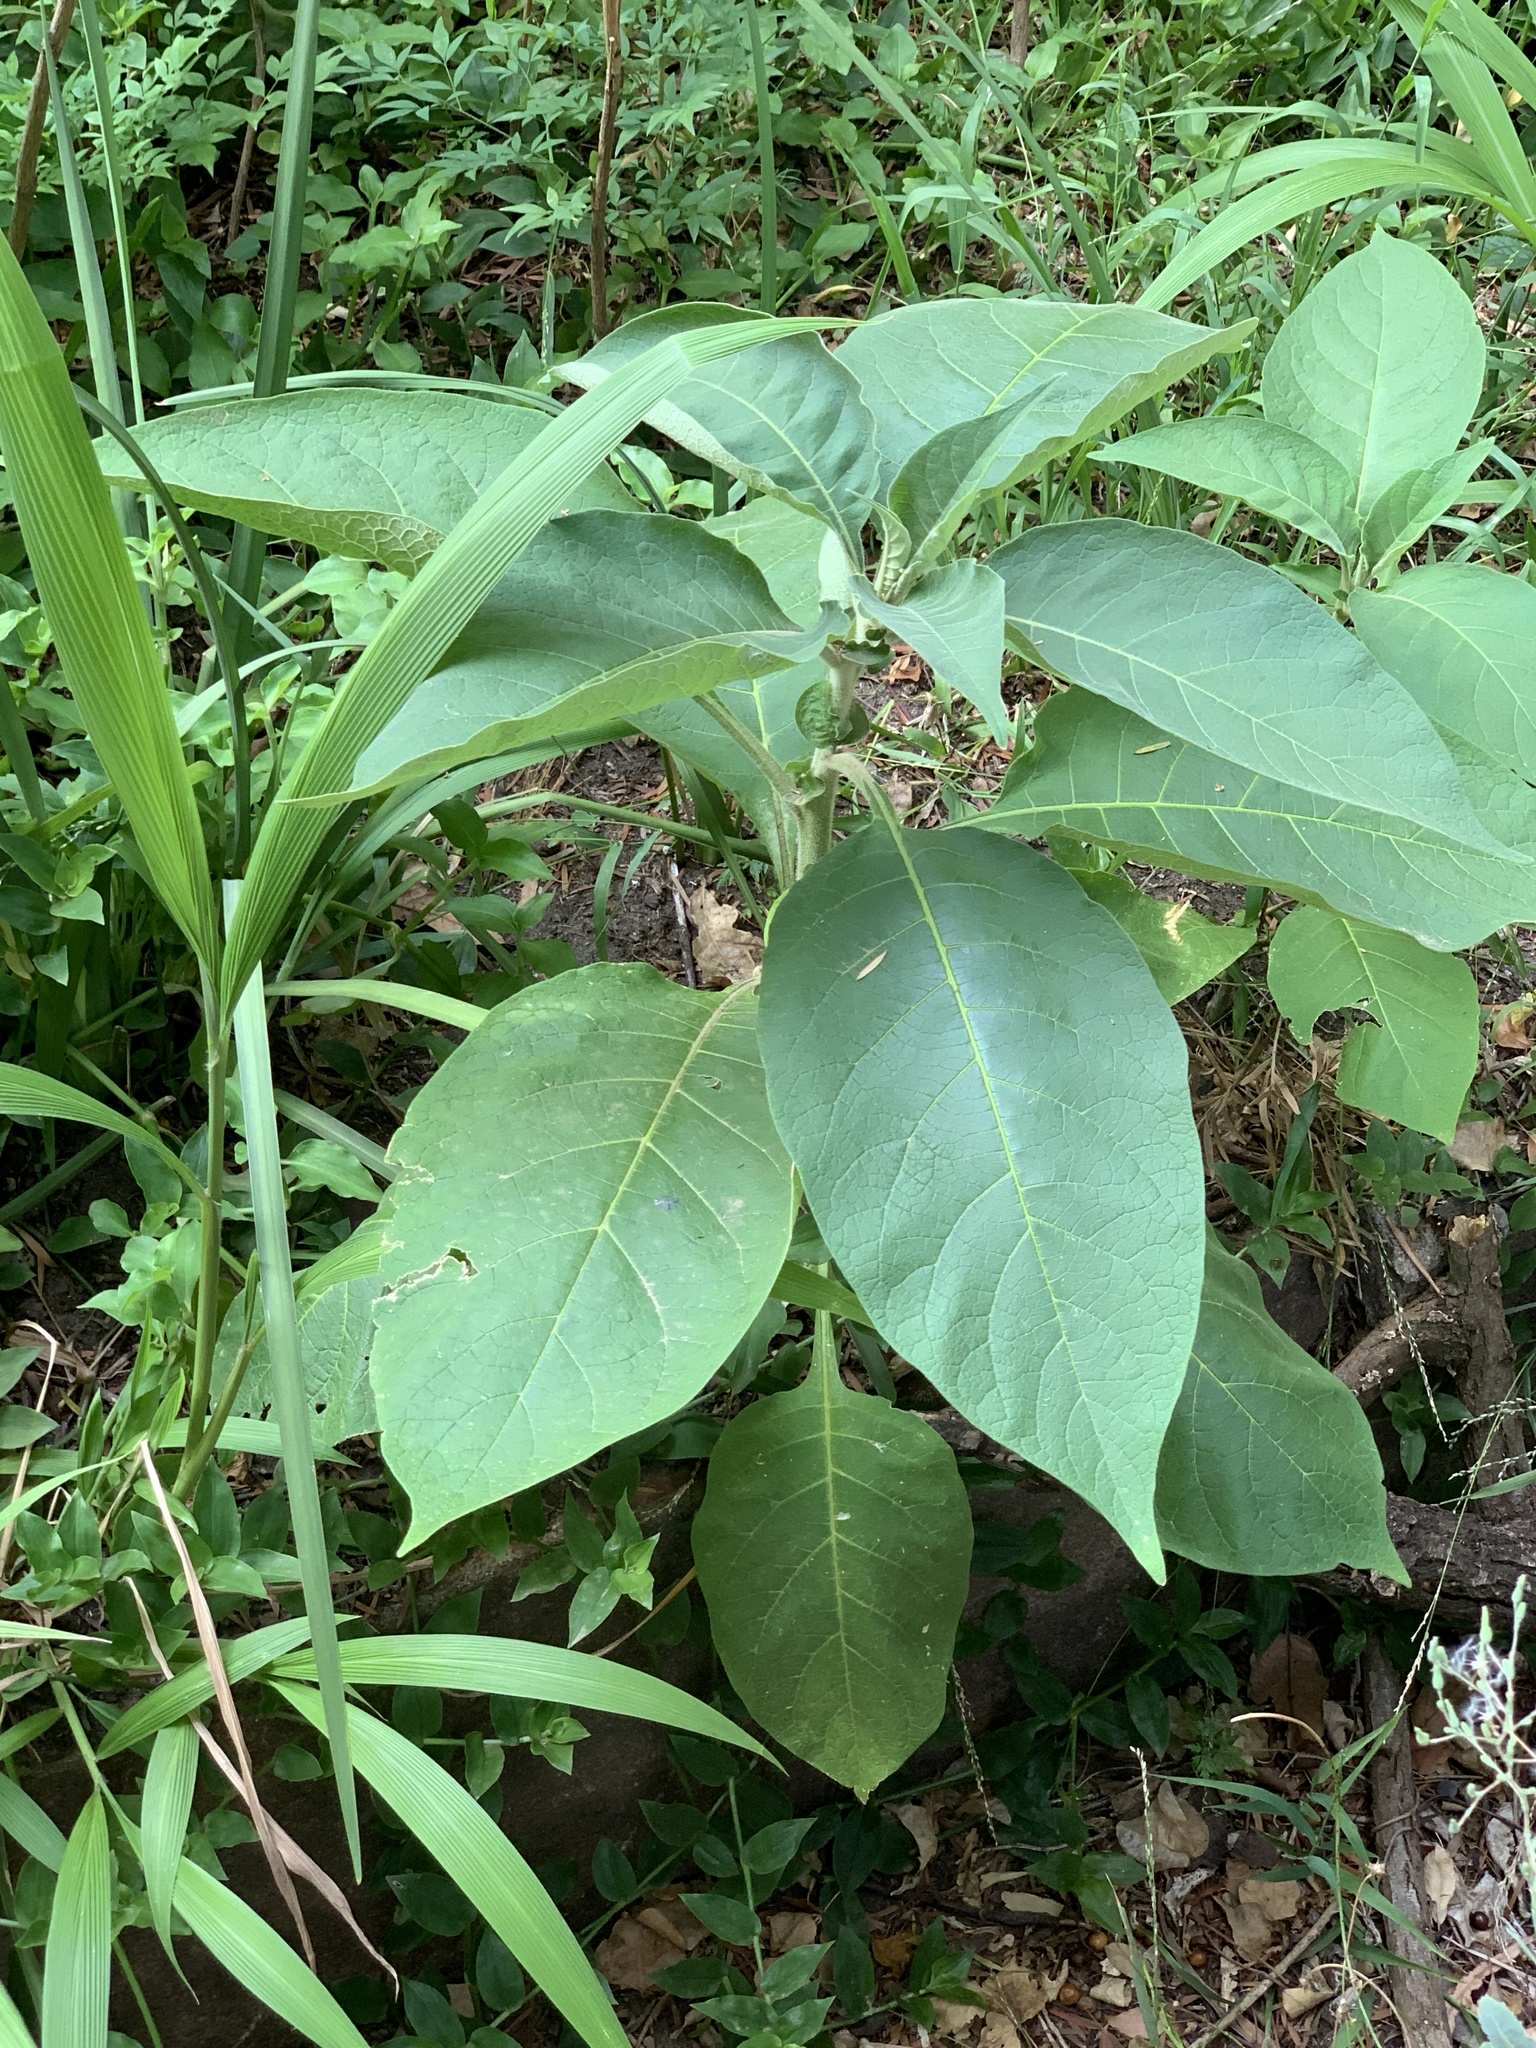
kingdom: Plantae
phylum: Tracheophyta
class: Magnoliopsida
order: Solanales
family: Solanaceae
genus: Solanum
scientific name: Solanum mauritianum
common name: Earleaf nightshade
